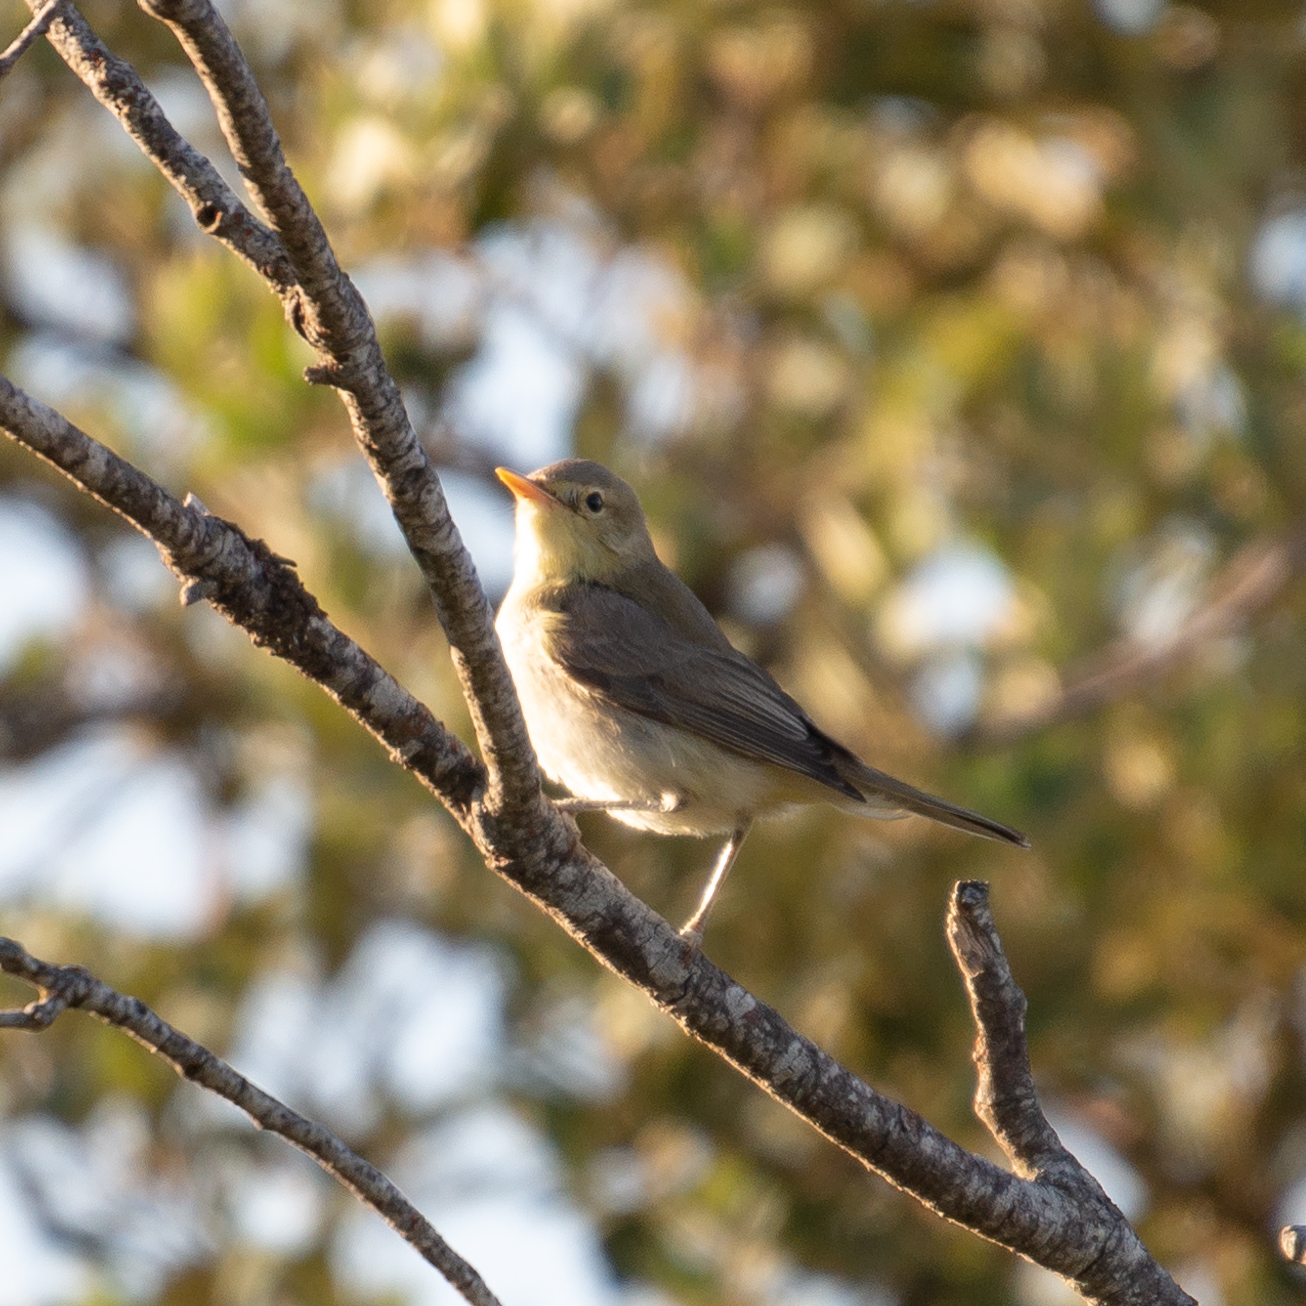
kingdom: Animalia
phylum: Chordata
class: Aves
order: Passeriformes
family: Acrocephalidae
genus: Hippolais
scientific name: Hippolais polyglotta
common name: Melodious warbler
